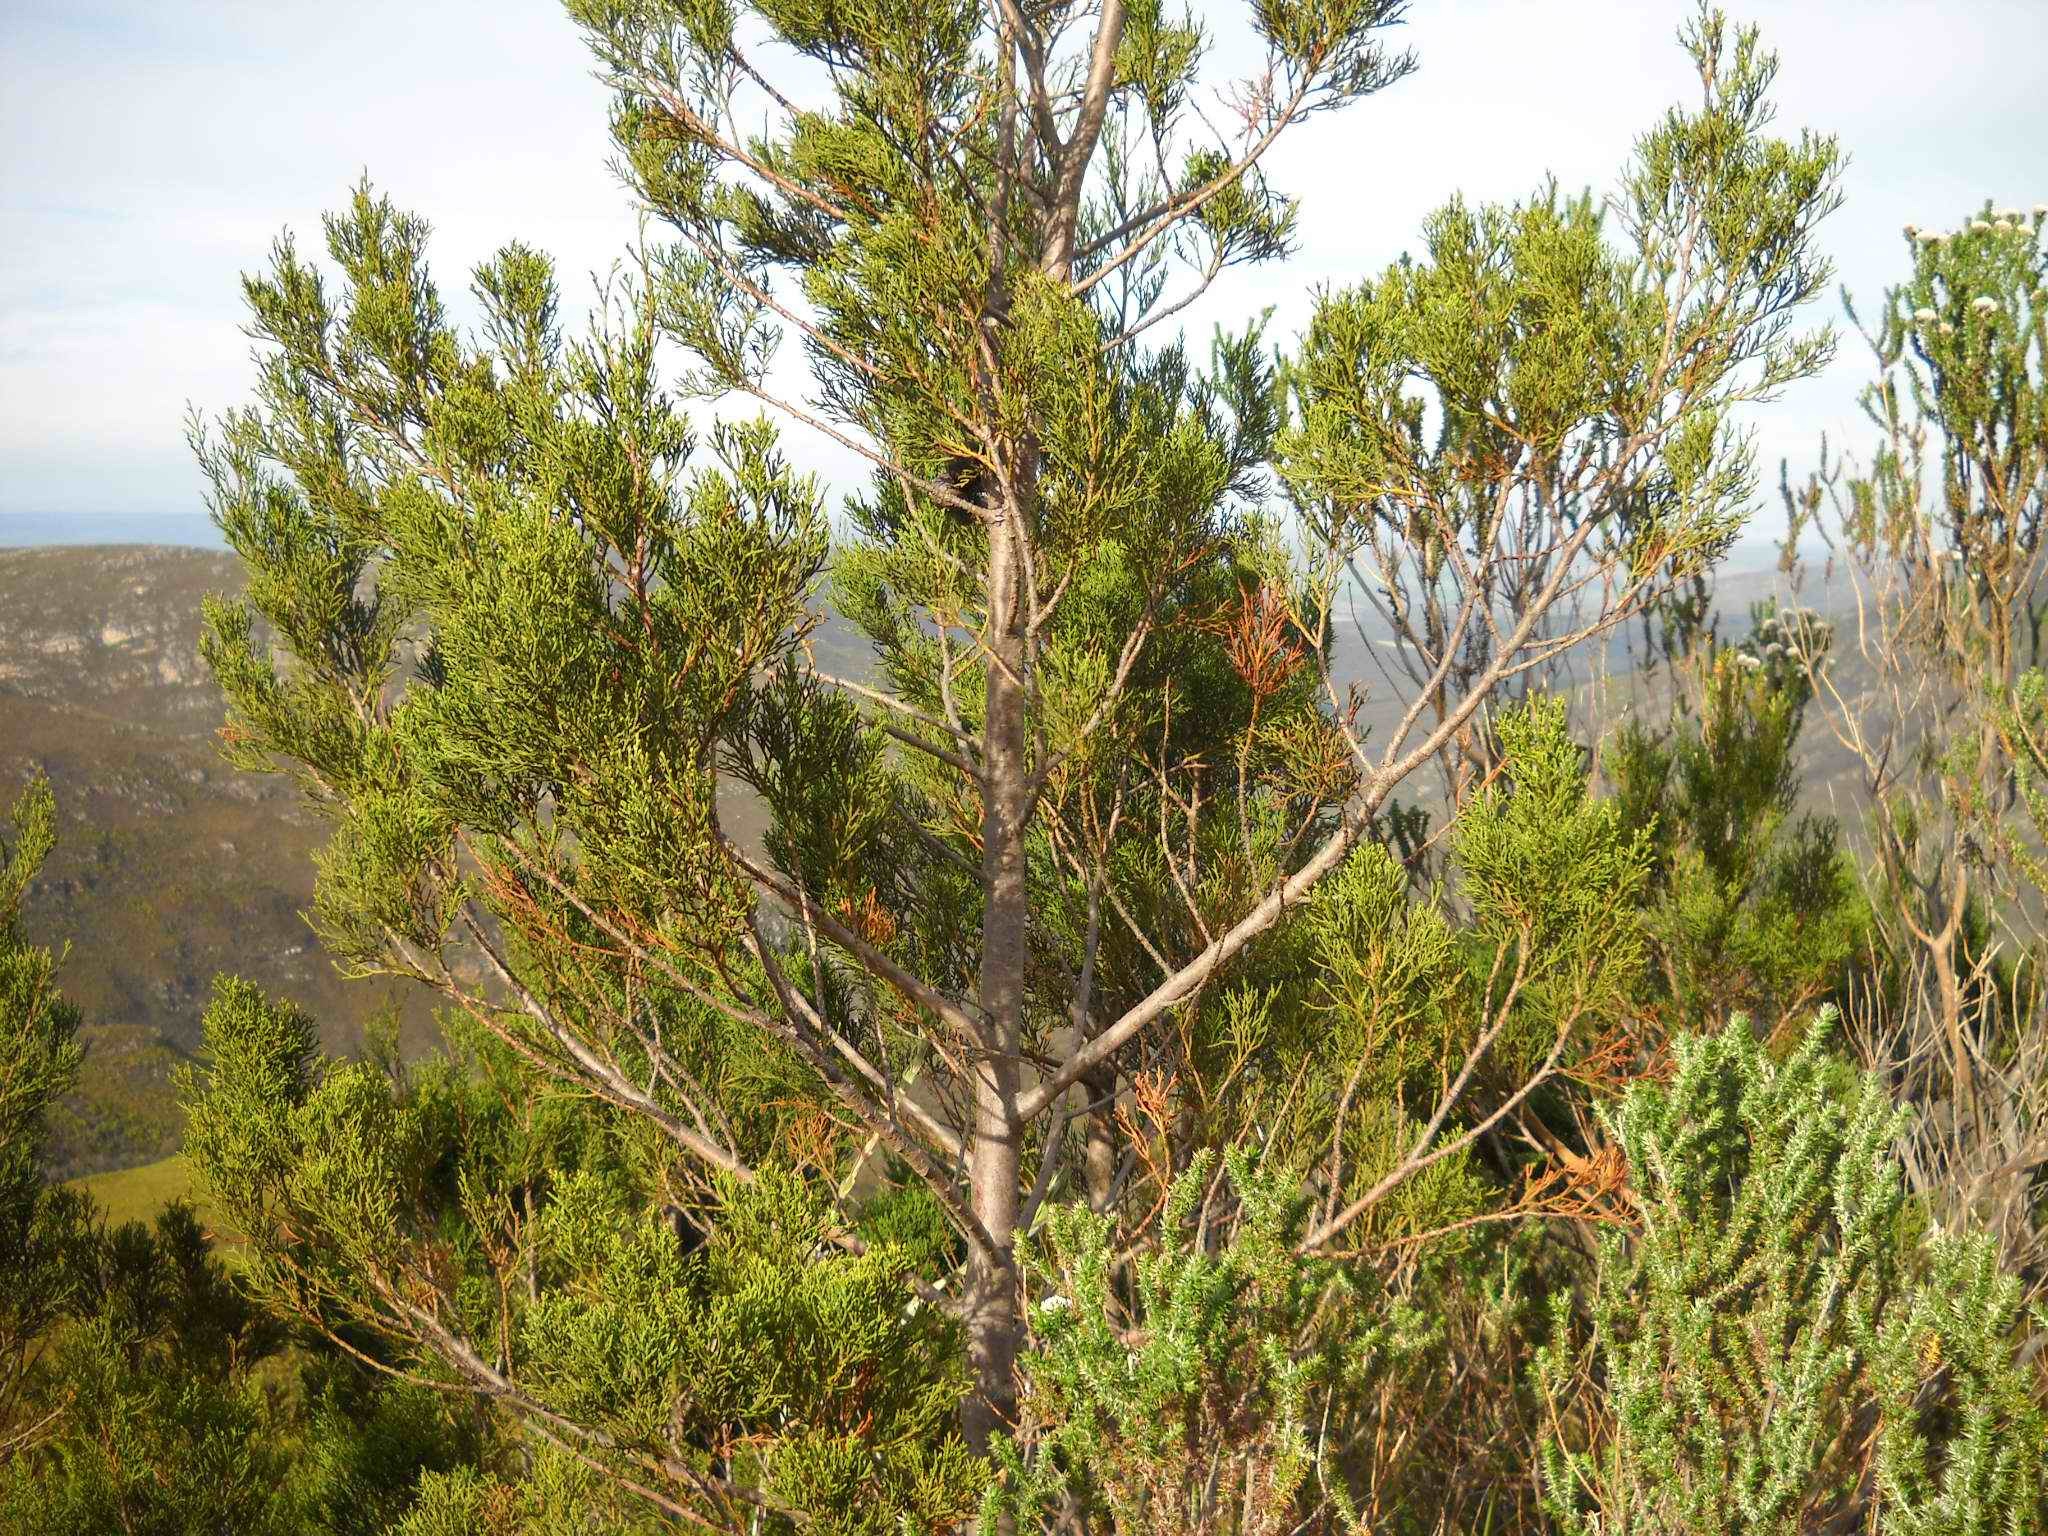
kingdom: Plantae
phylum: Tracheophyta
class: Pinopsida
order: Pinales
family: Cupressaceae
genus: Widdringtonia
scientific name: Widdringtonia nodiflora
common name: Cape cypress
